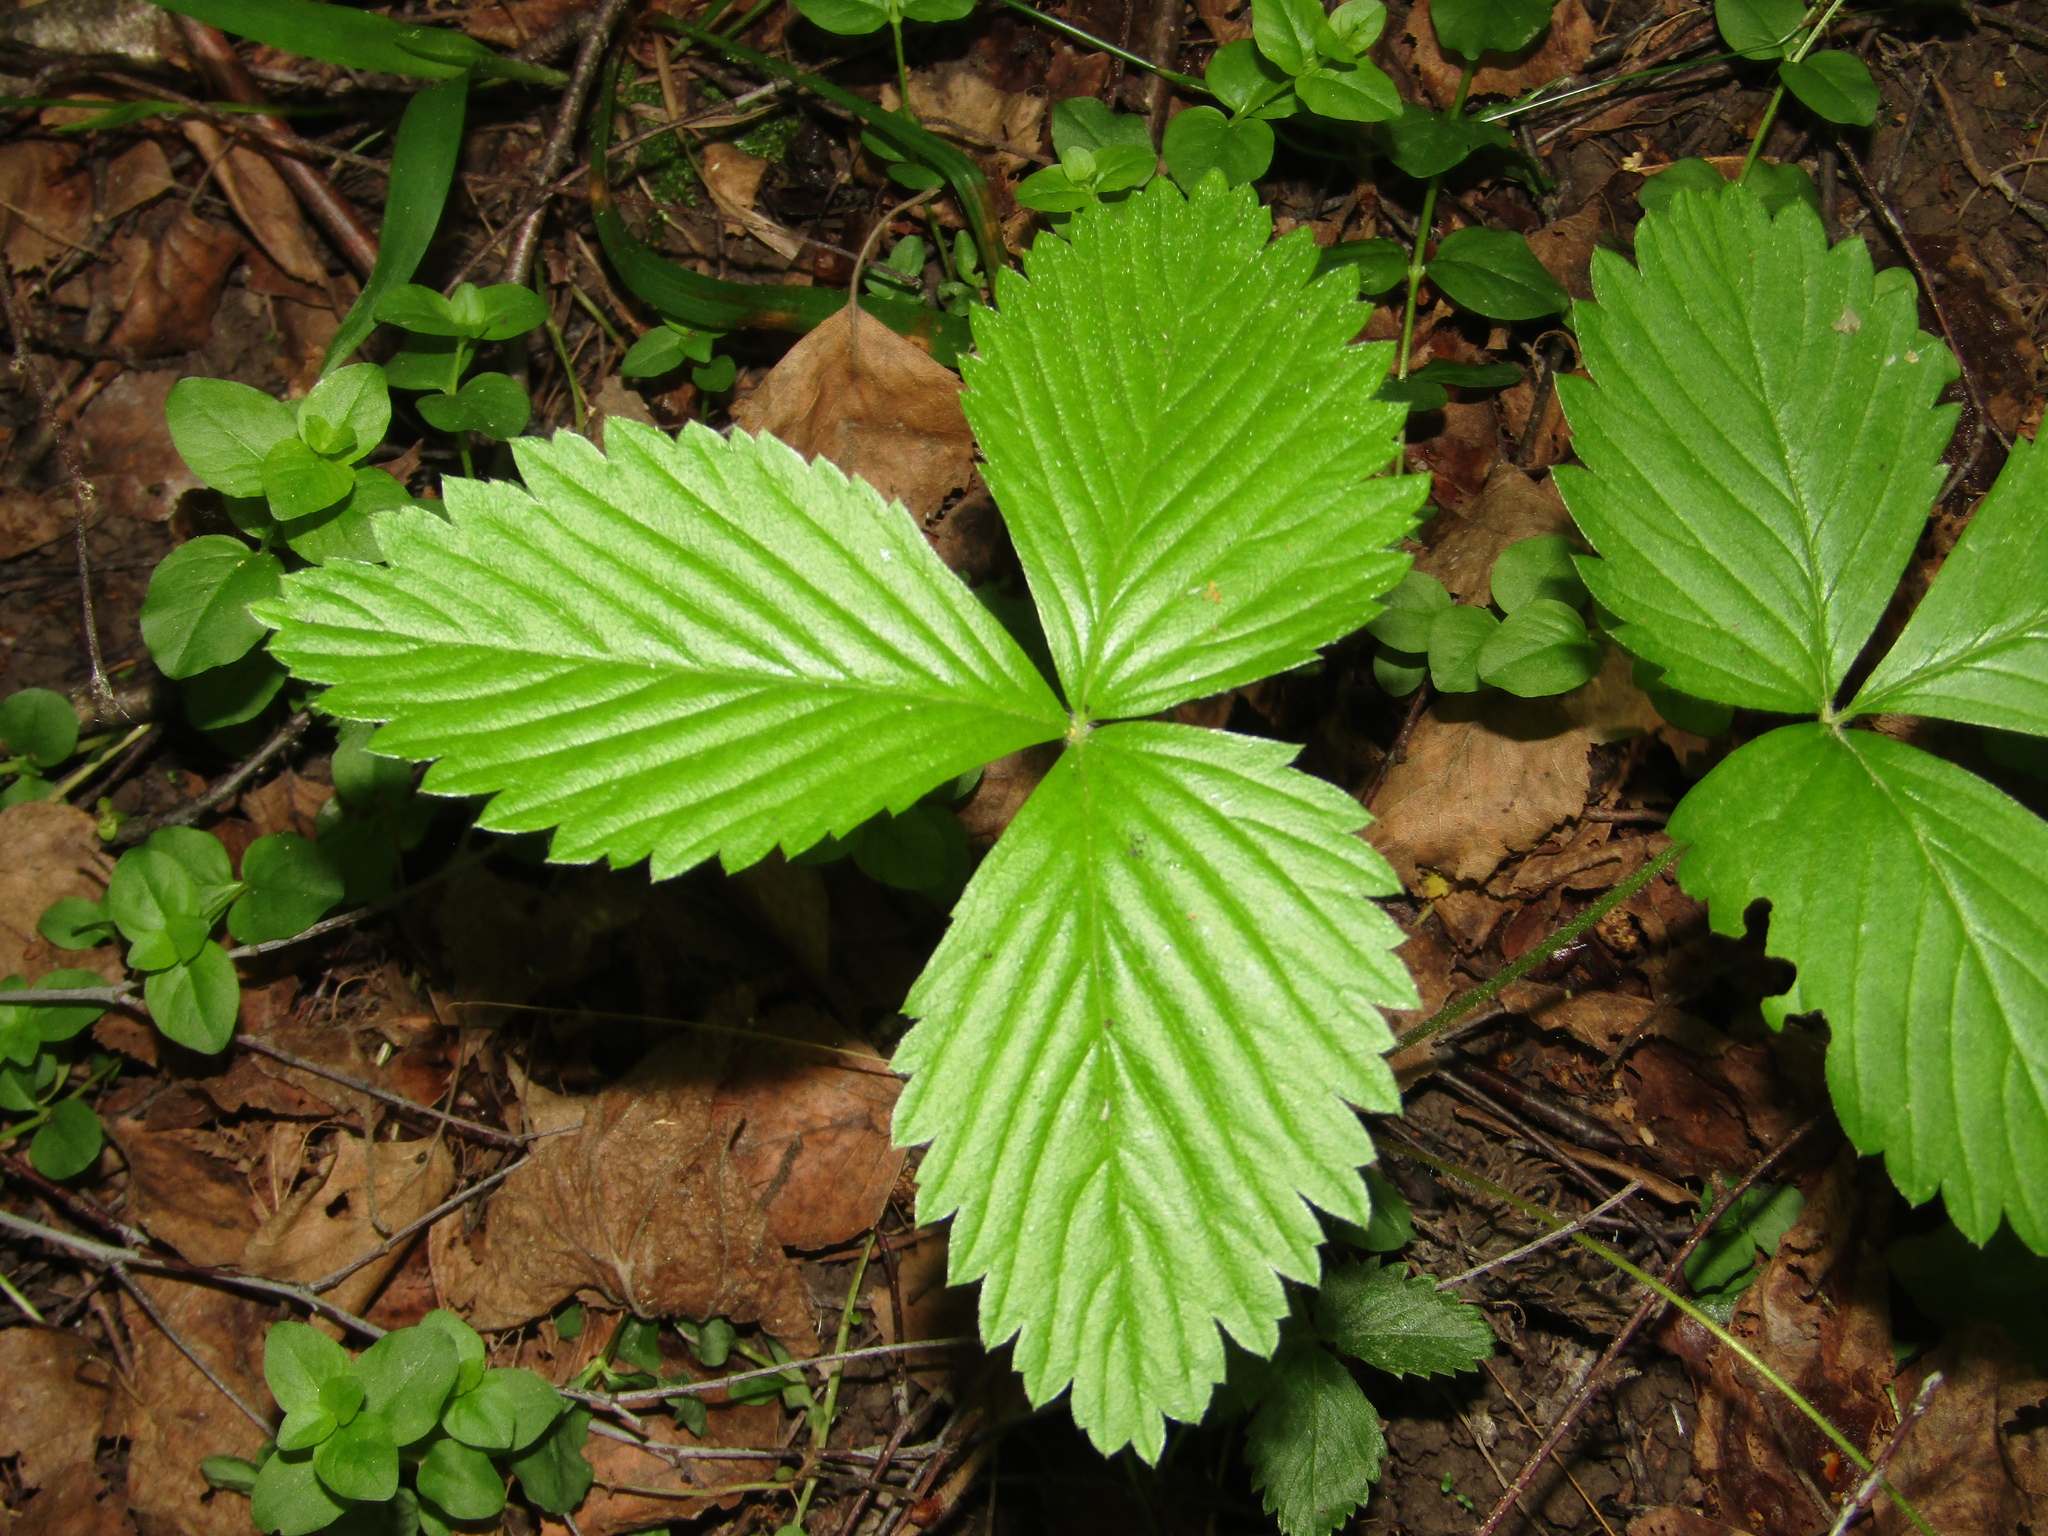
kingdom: Plantae
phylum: Tracheophyta
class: Magnoliopsida
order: Rosales
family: Rosaceae
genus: Fragaria
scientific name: Fragaria vesca
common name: Wild strawberry
